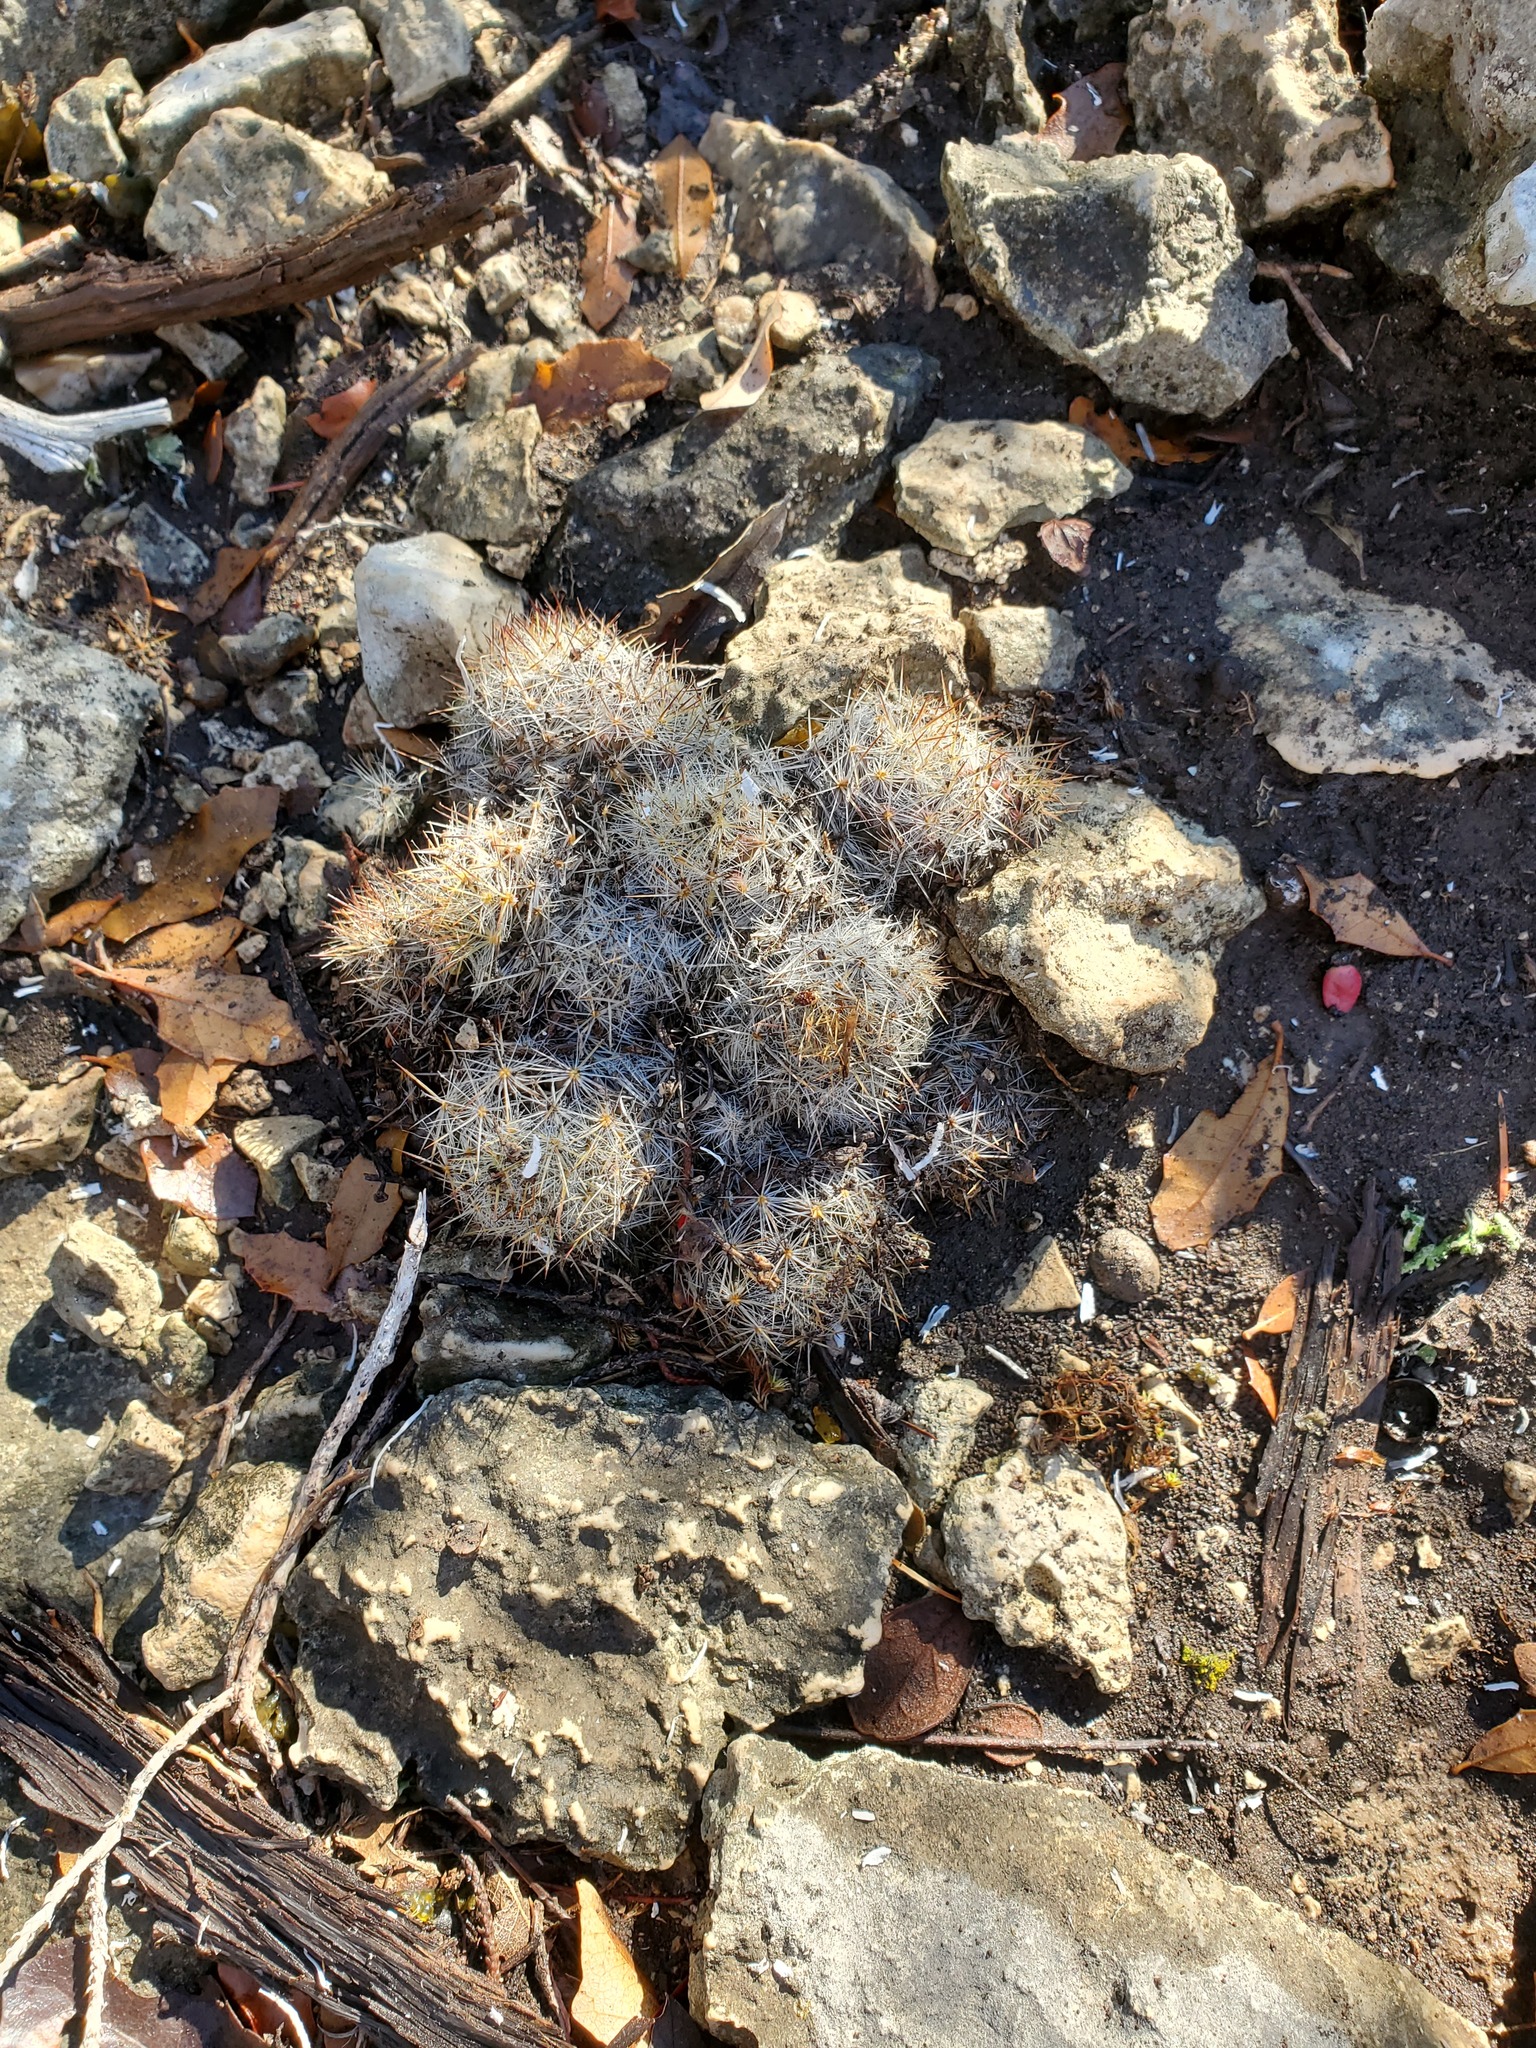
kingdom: Plantae
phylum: Tracheophyta
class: Magnoliopsida
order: Caryophyllales
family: Cactaceae
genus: Mammillaria
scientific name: Mammillaria prolifera
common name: Texas nipple cactus
